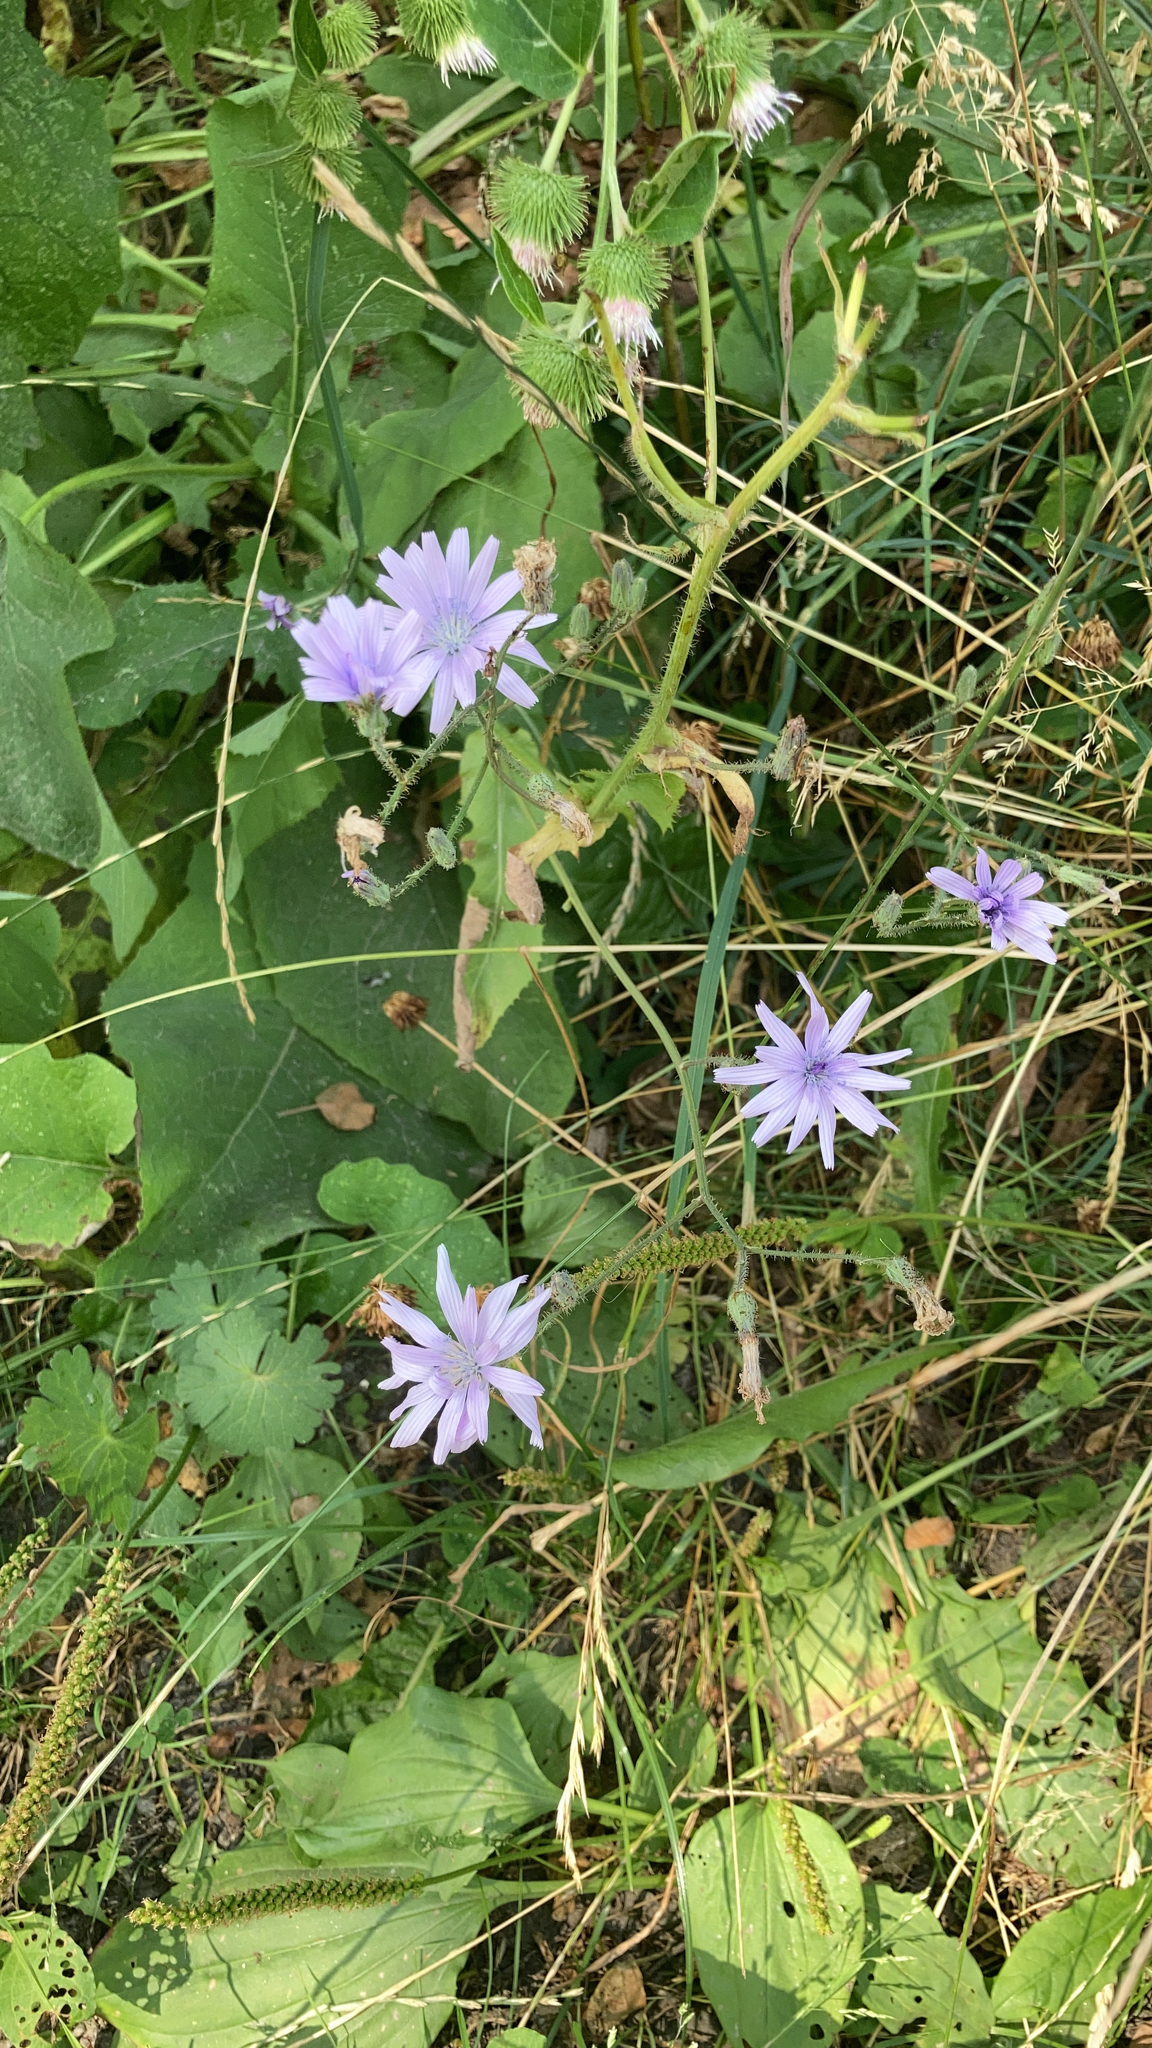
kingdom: Plantae
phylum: Tracheophyta
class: Magnoliopsida
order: Asterales
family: Asteraceae
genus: Lactuca
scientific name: Lactuca macrophylla
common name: Common blue-sow-thistle
